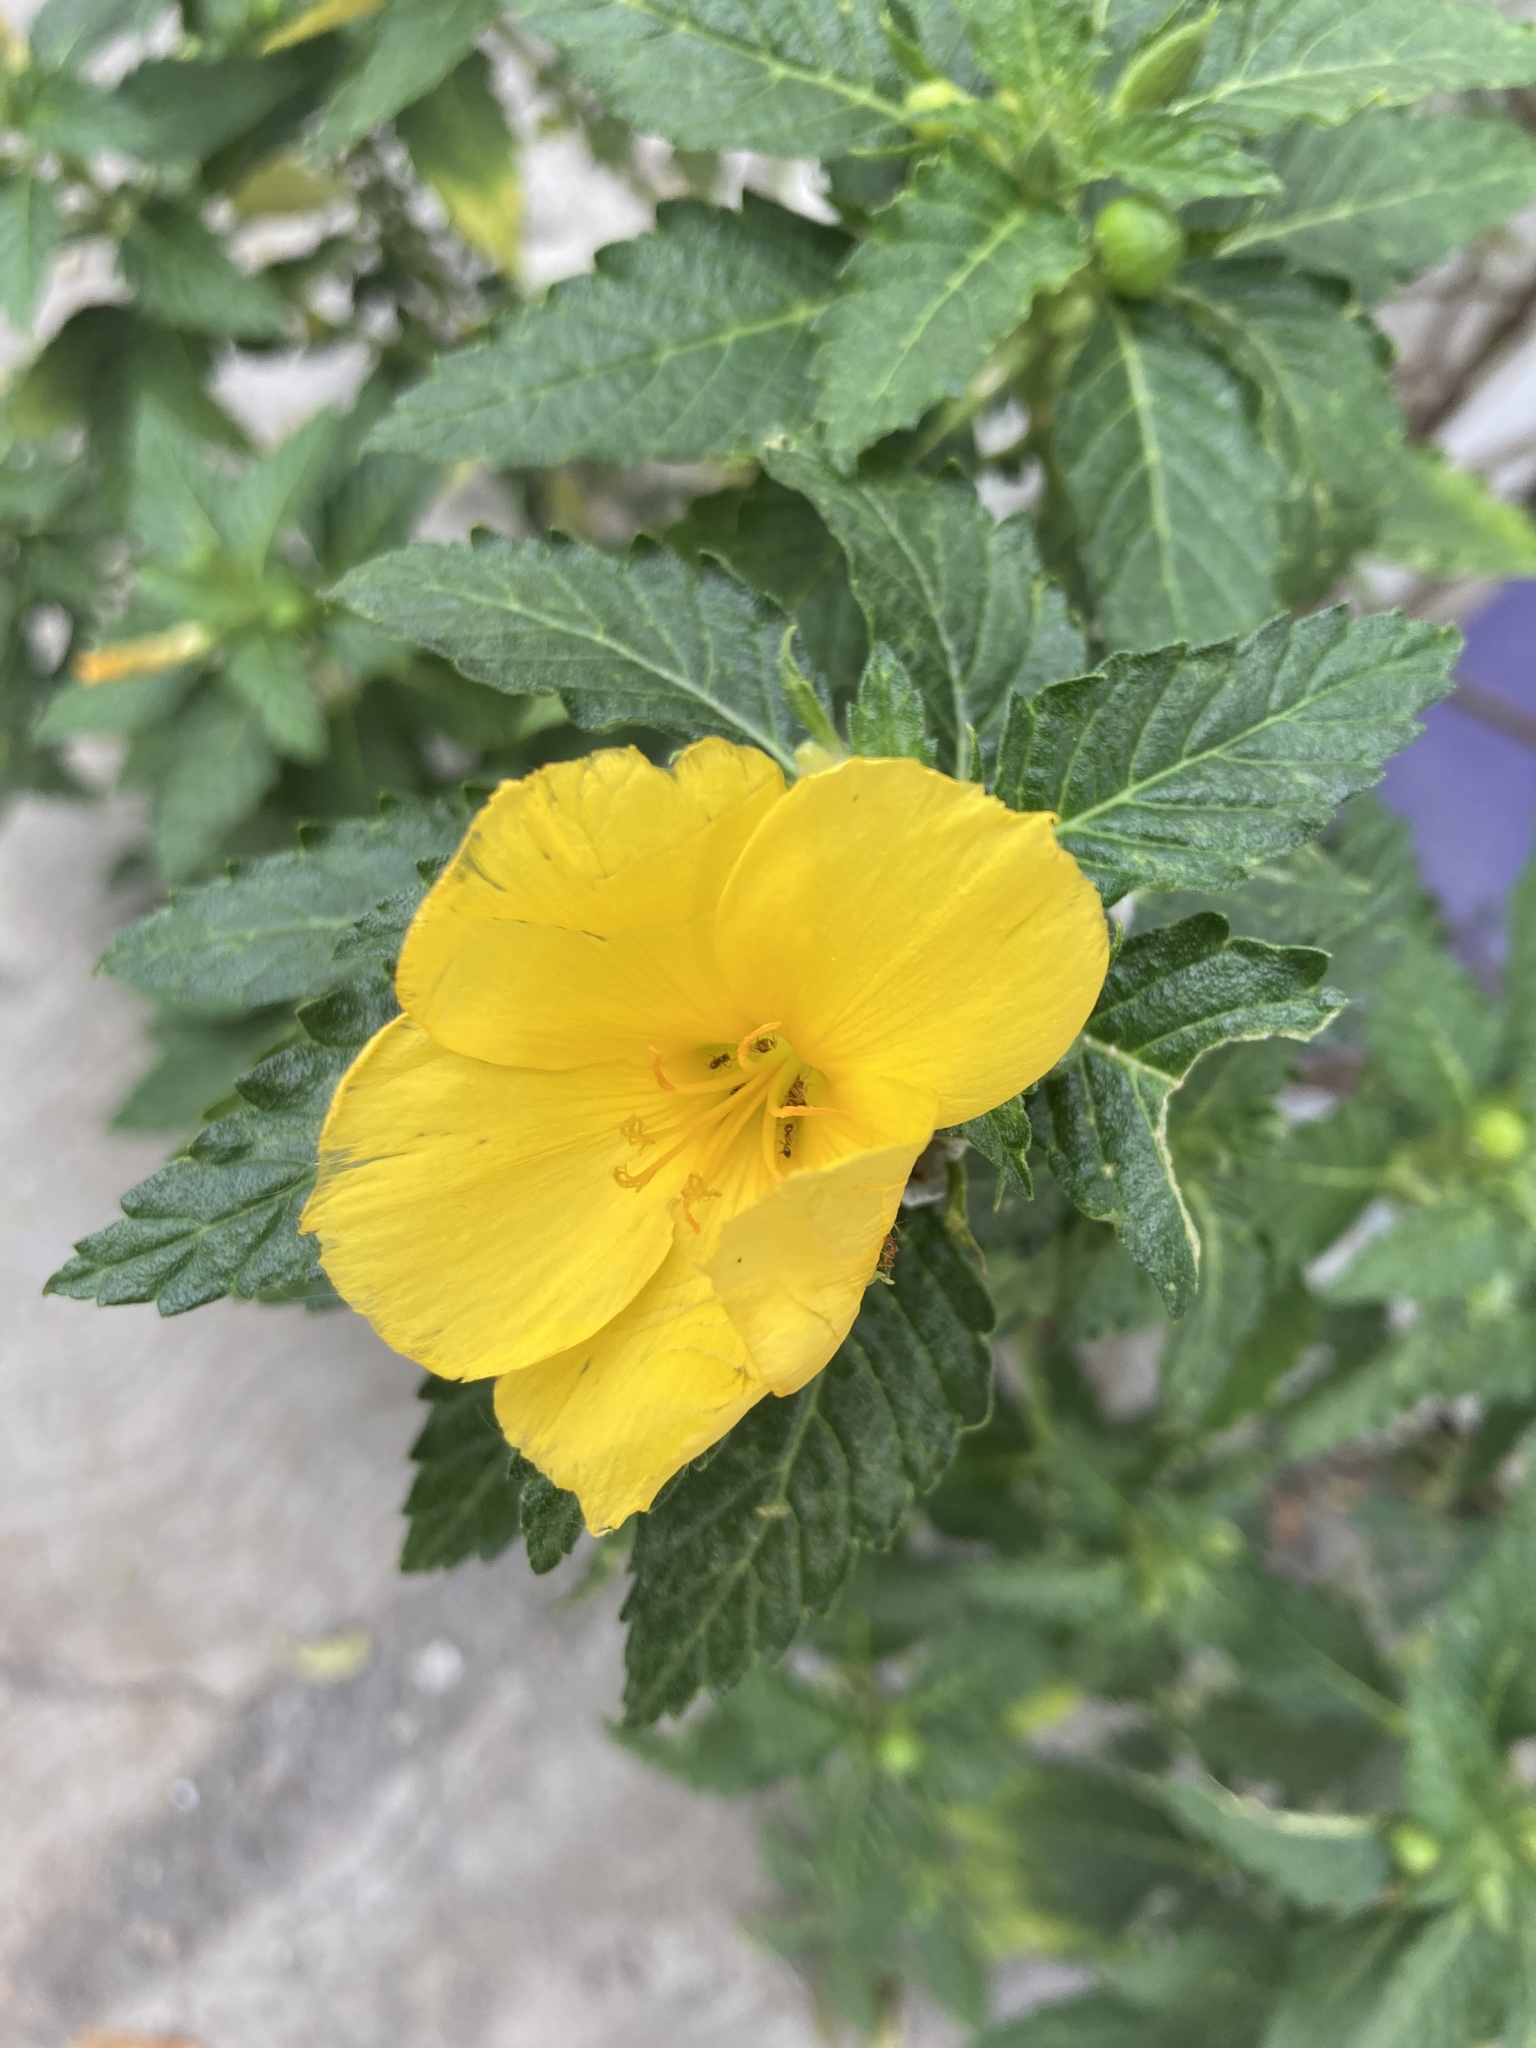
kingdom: Plantae
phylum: Tracheophyta
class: Magnoliopsida
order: Malpighiales
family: Turneraceae
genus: Turnera
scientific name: Turnera ulmifolia
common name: Ramgoat dashalong
